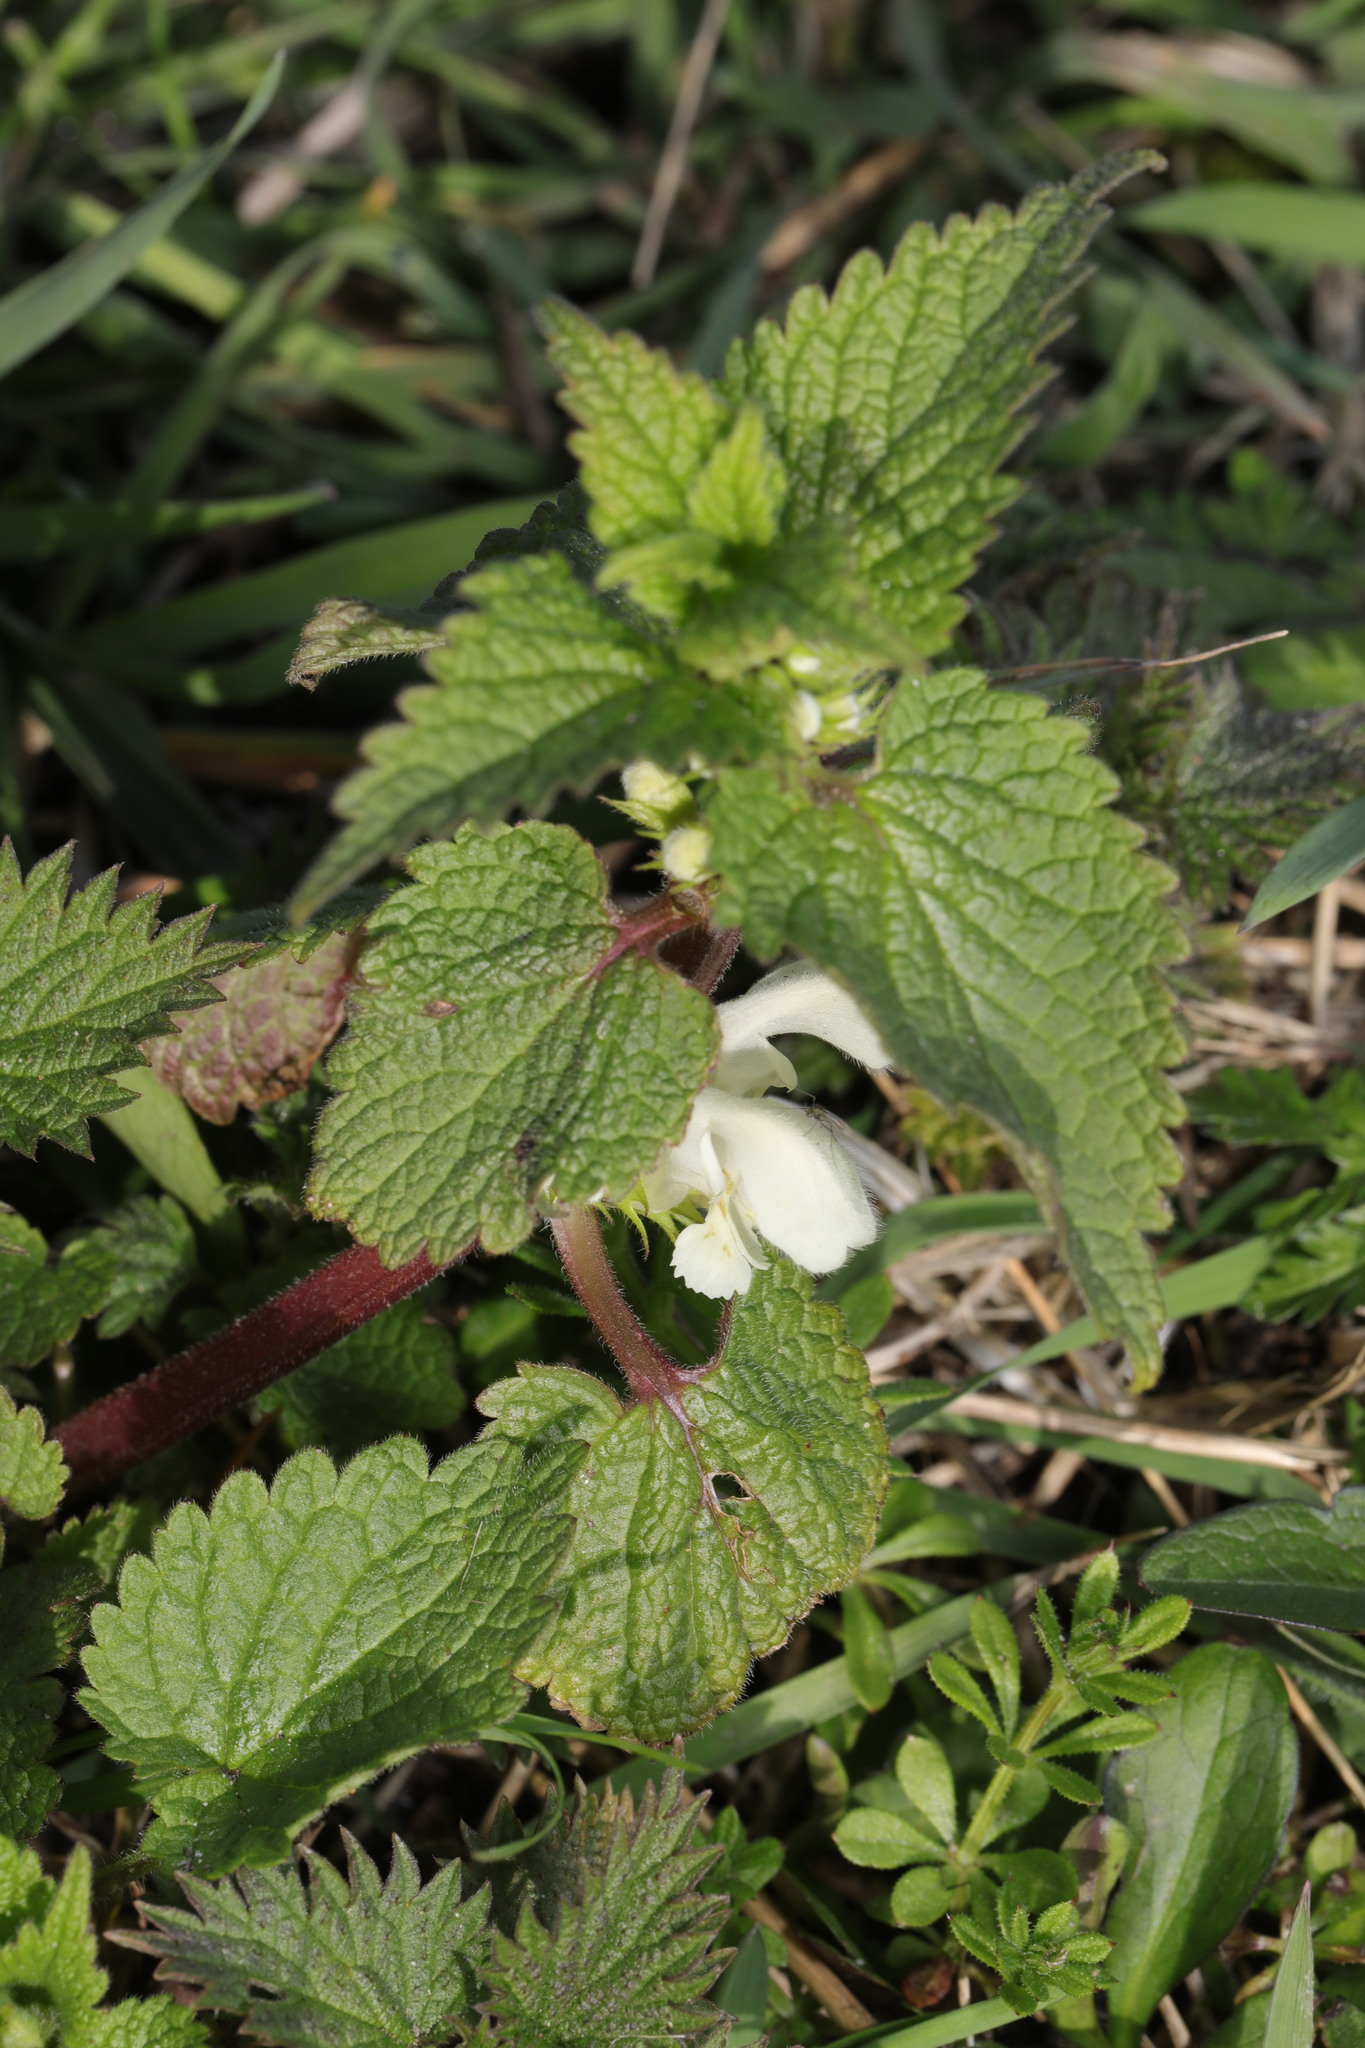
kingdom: Plantae
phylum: Tracheophyta
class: Magnoliopsida
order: Lamiales
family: Lamiaceae
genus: Lamium
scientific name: Lamium album
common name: White dead-nettle
